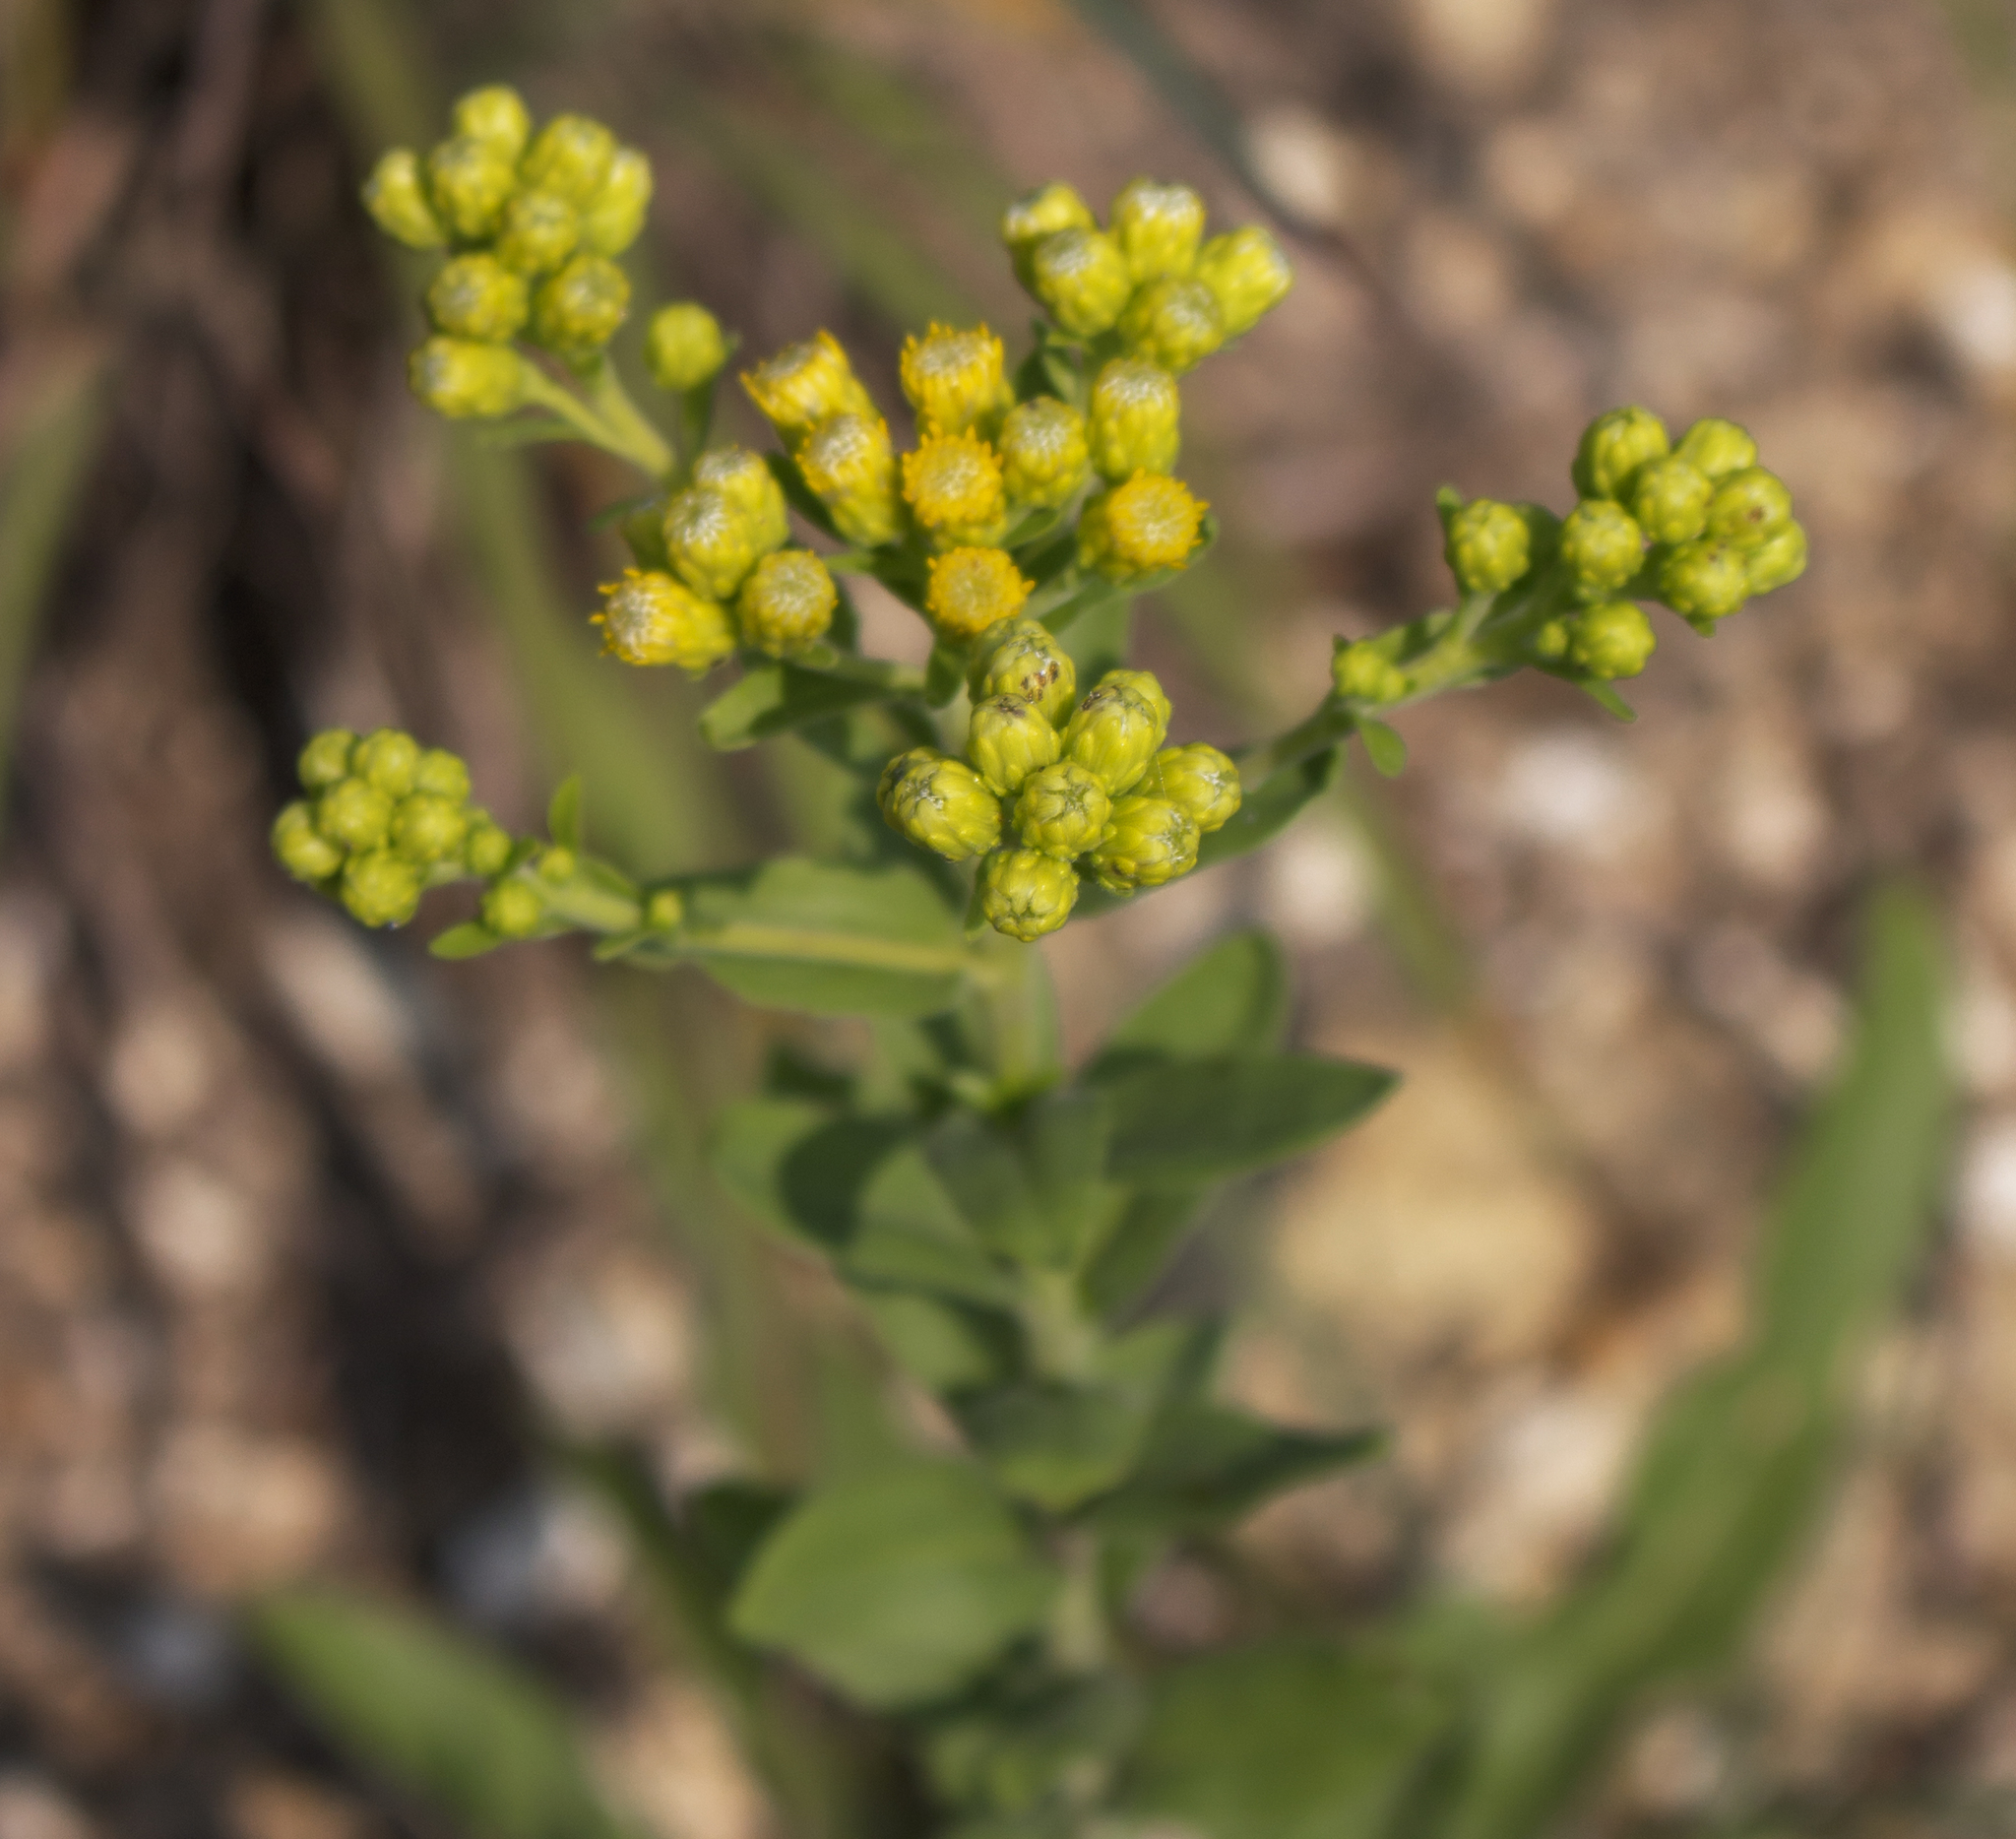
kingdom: Plantae
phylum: Tracheophyta
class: Magnoliopsida
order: Asterales
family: Asteraceae
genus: Solidago
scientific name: Solidago rigida
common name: Rigid goldenrod
